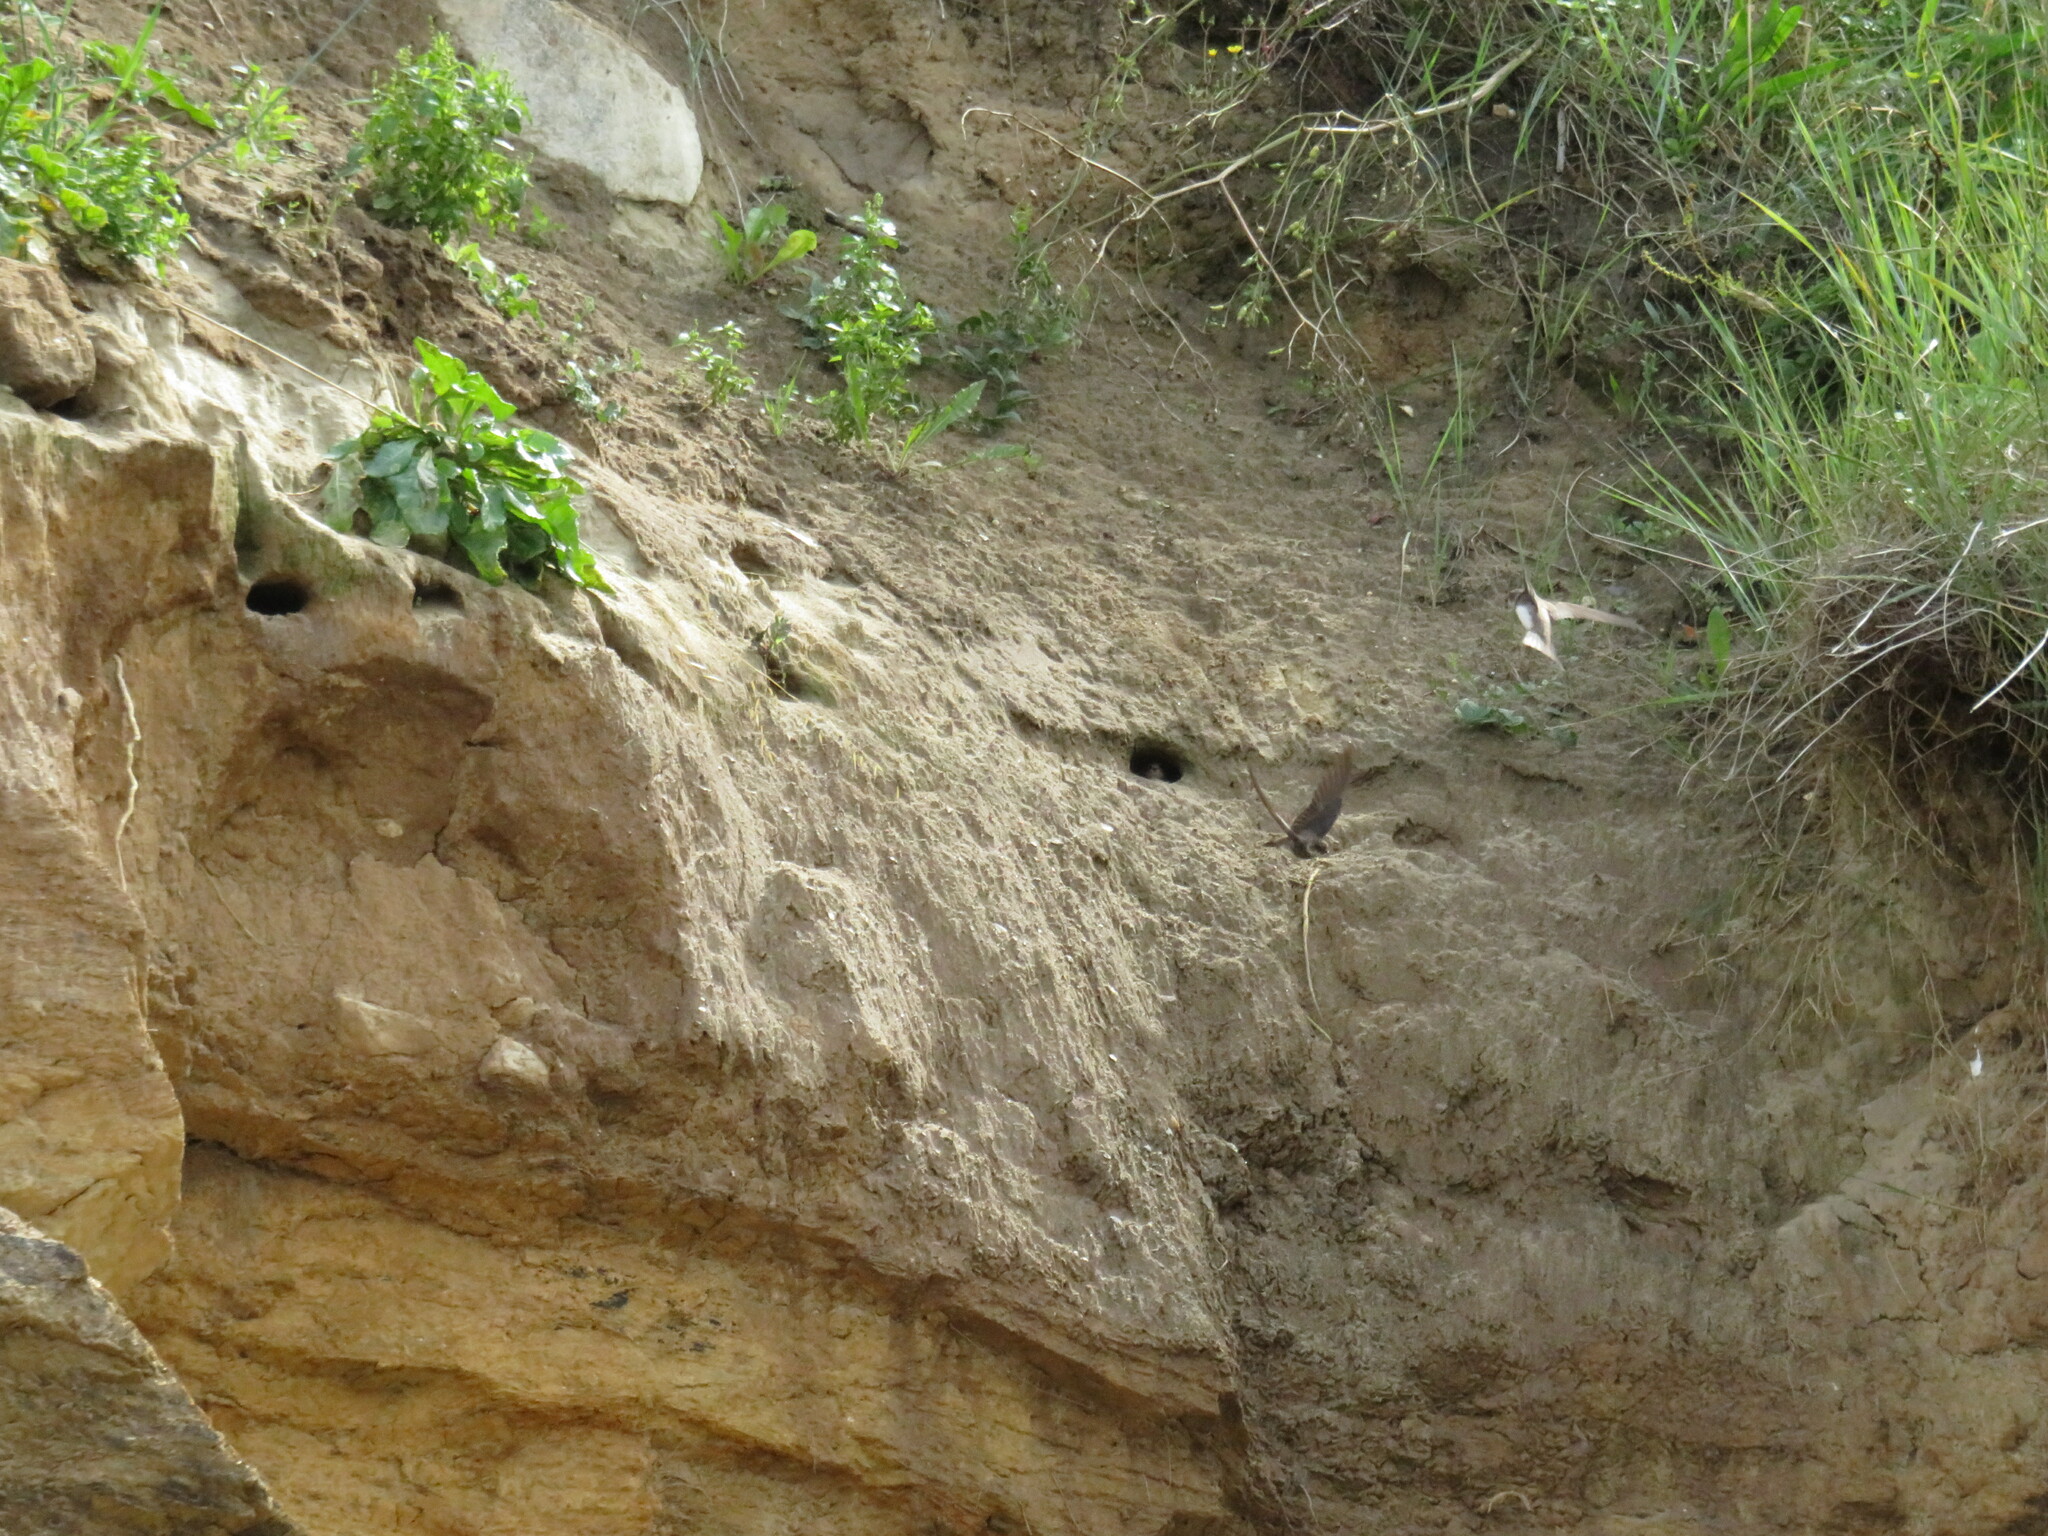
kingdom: Animalia
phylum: Chordata
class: Aves
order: Passeriformes
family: Hirundinidae
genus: Riparia
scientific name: Riparia riparia
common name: Sand martin
